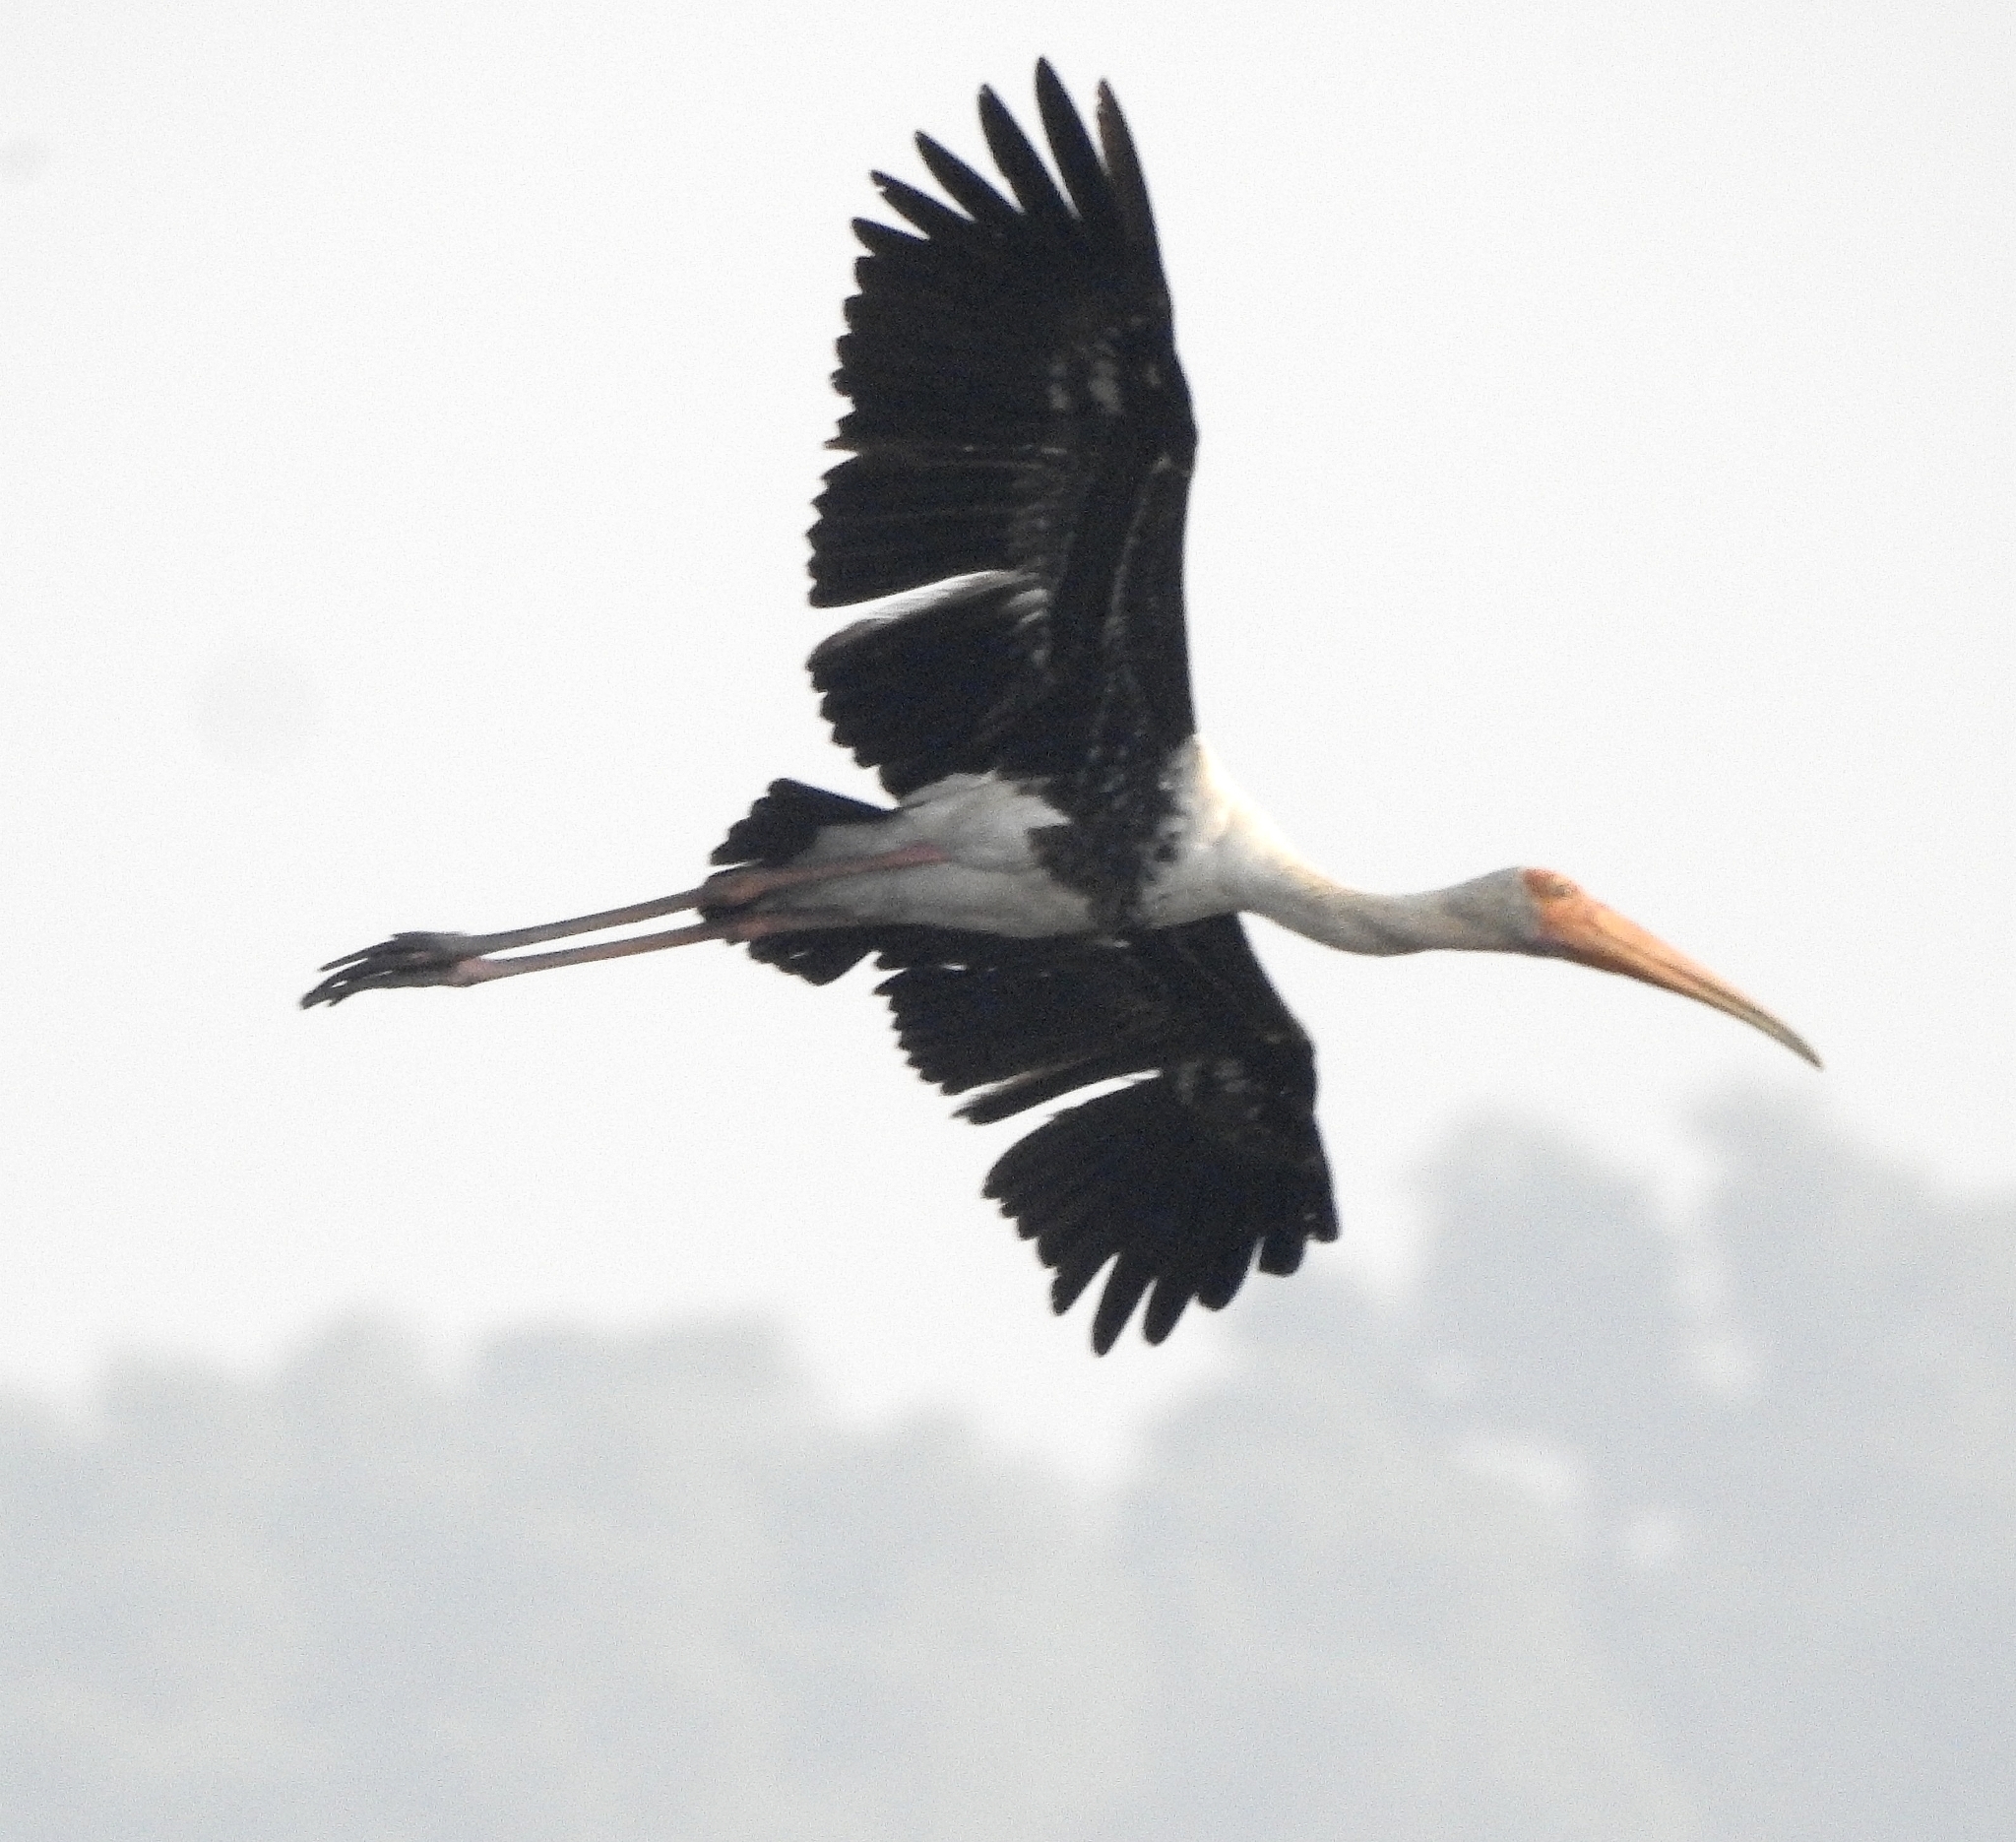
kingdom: Animalia
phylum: Chordata
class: Aves
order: Ciconiiformes
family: Ciconiidae
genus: Mycteria
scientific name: Mycteria leucocephala
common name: Painted stork
